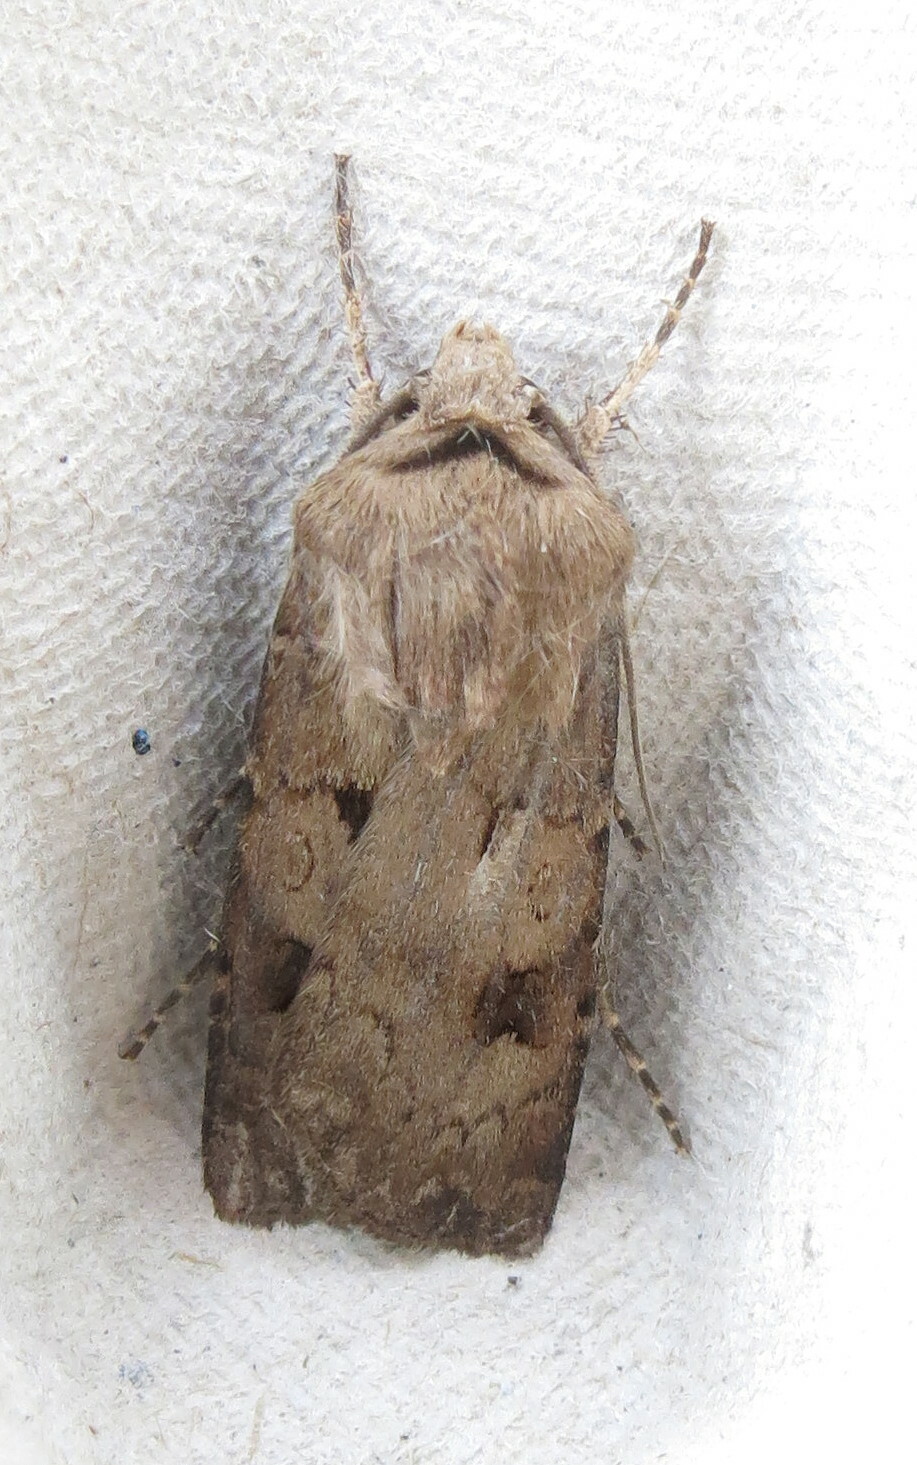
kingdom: Animalia
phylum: Arthropoda
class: Insecta
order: Lepidoptera
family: Noctuidae
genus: Agrotis
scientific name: Agrotis exclamationis
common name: Heart and dart
